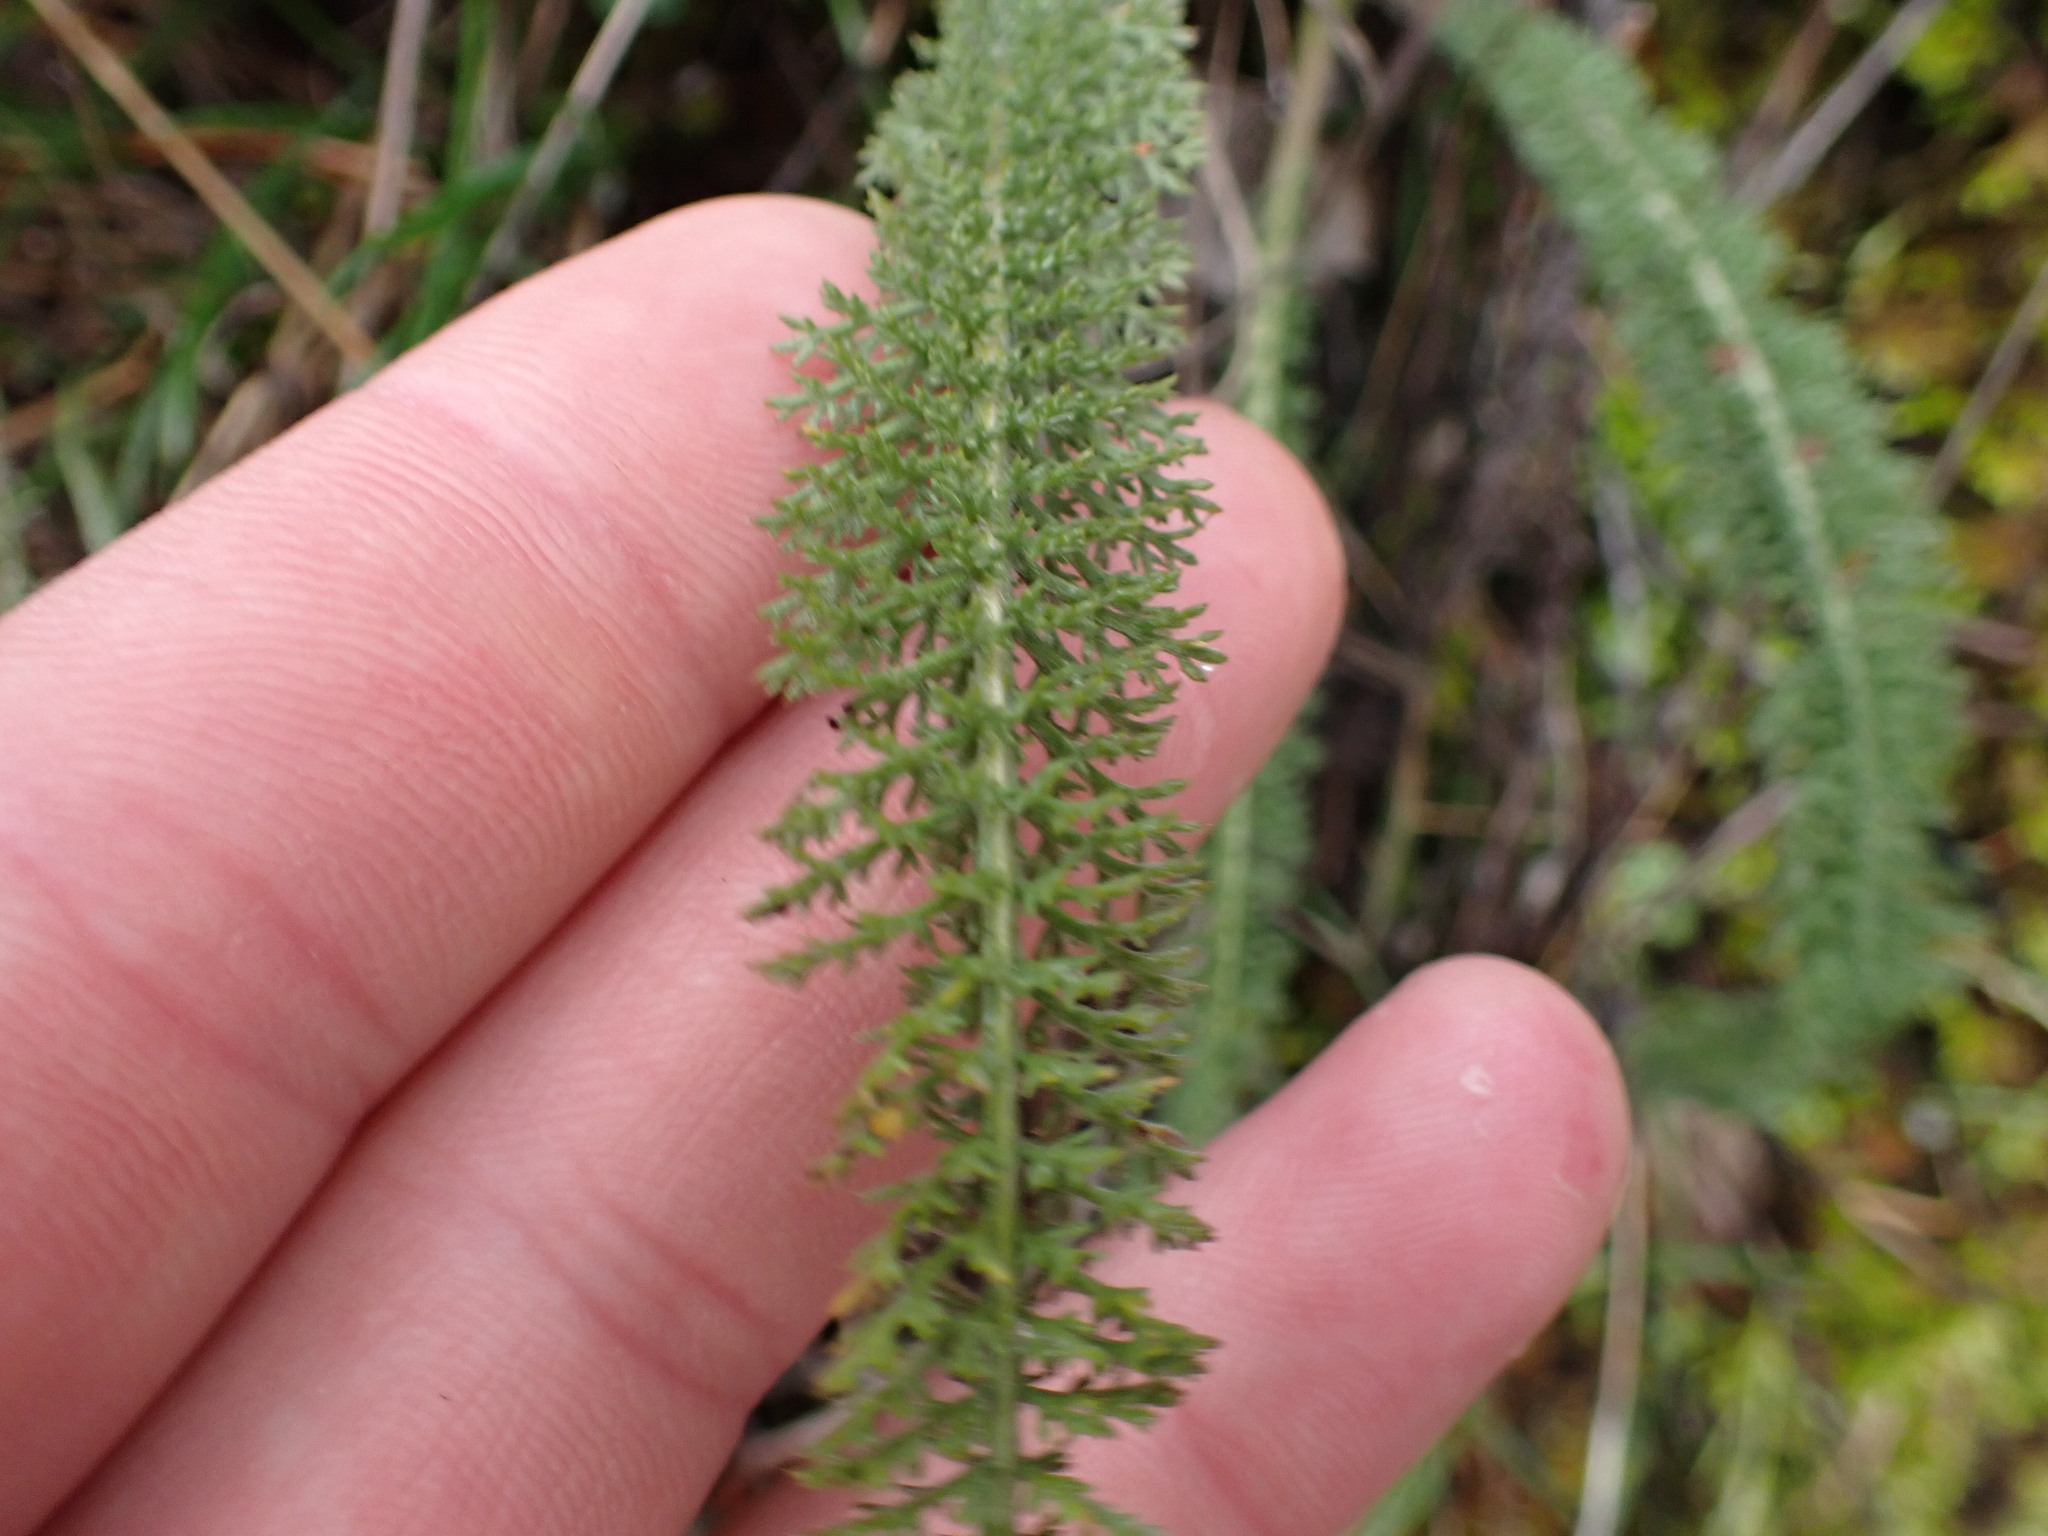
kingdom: Plantae
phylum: Tracheophyta
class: Magnoliopsida
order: Asterales
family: Asteraceae
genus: Achillea
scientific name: Achillea millefolium
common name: Yarrow
